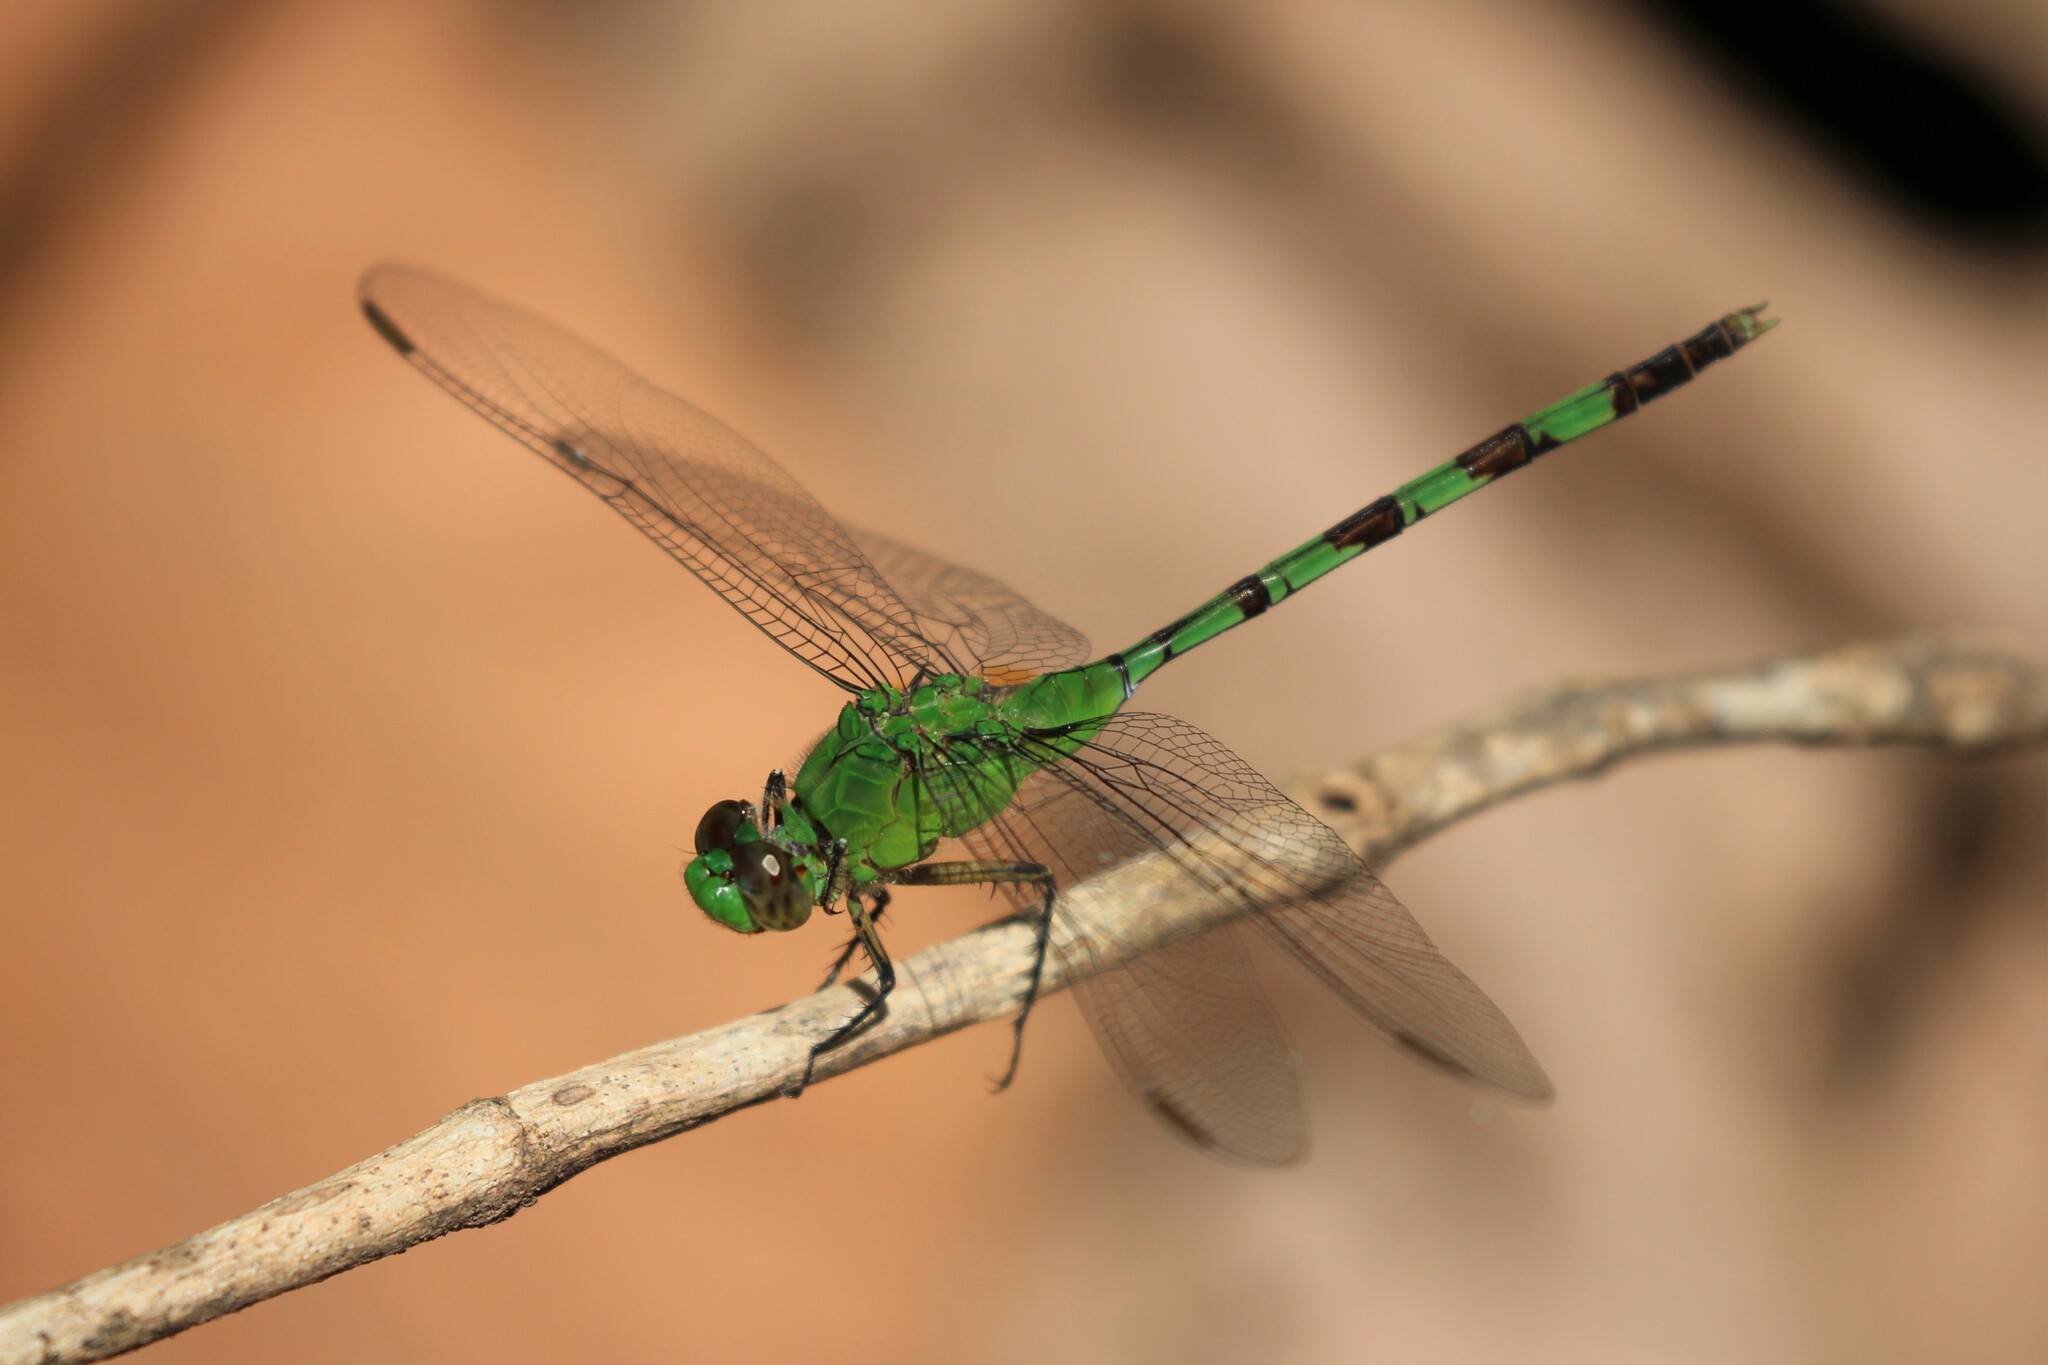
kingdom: Animalia
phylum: Arthropoda
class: Insecta
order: Odonata
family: Libellulidae
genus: Erythemis
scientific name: Erythemis vesiculosa
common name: Great pondhawk
